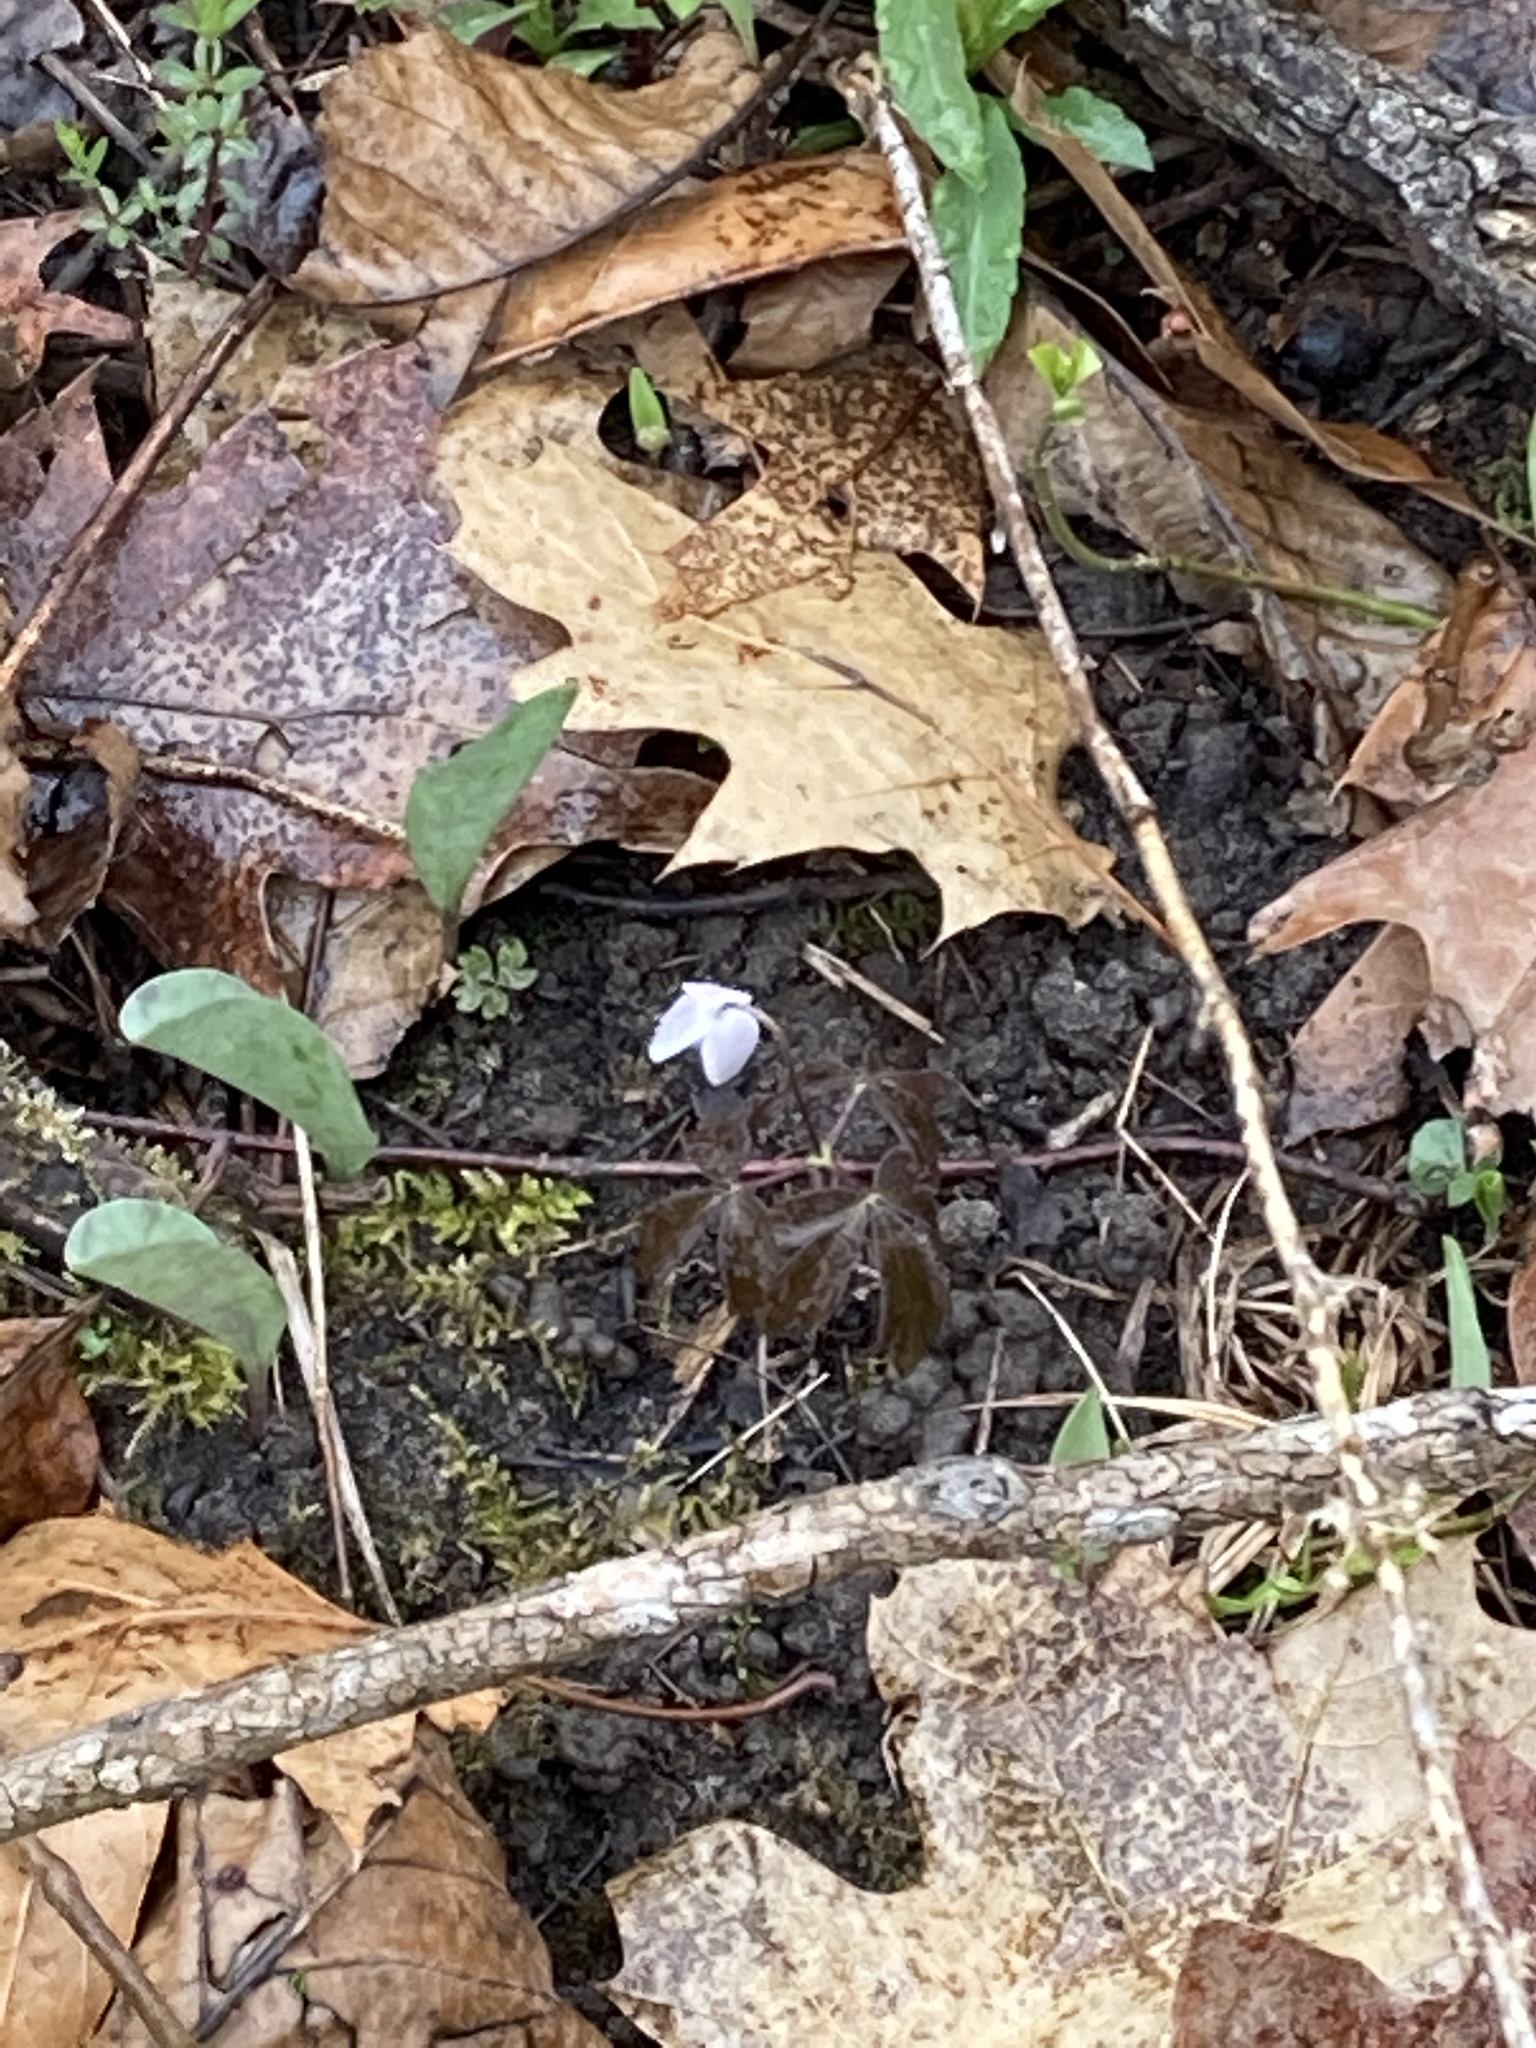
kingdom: Plantae
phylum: Tracheophyta
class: Magnoliopsida
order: Ranunculales
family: Ranunculaceae
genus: Anemone
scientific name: Anemone quinquefolia
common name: Wood anemone
